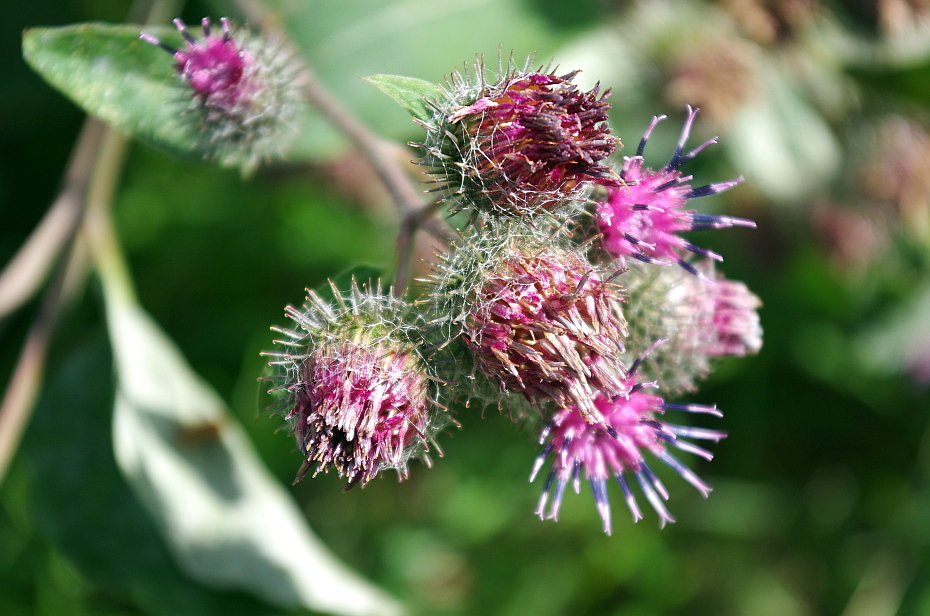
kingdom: Plantae
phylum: Tracheophyta
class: Magnoliopsida
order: Asterales
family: Asteraceae
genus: Arctium
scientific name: Arctium tomentosum
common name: Woolly burdock
